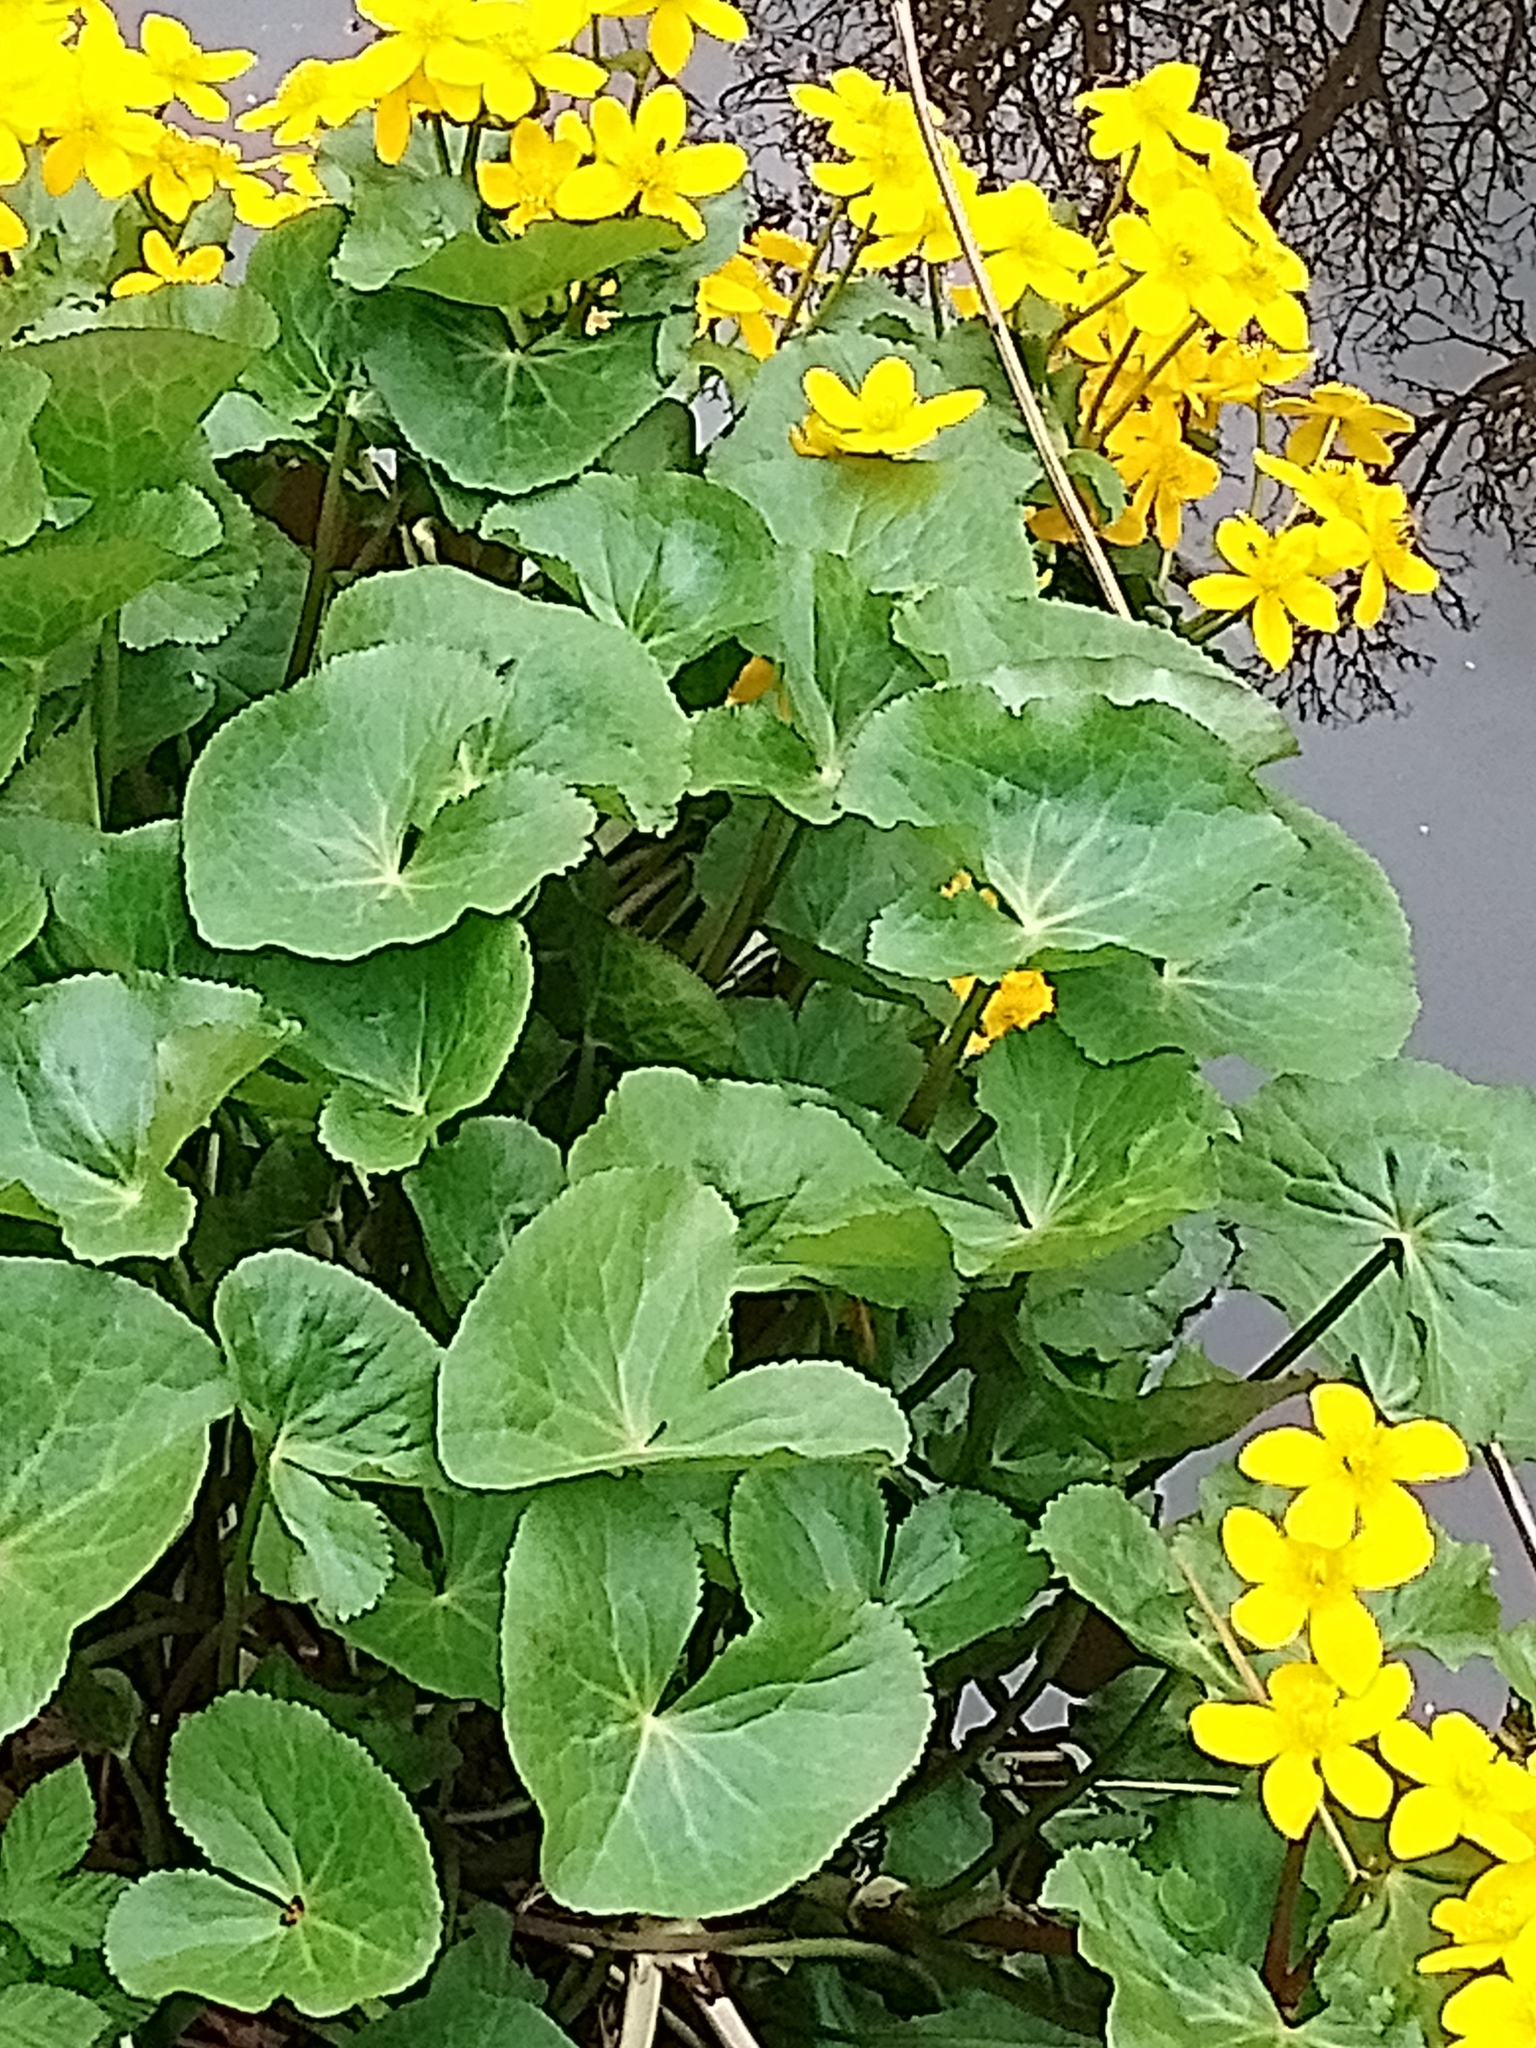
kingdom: Plantae
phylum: Tracheophyta
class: Magnoliopsida
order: Ranunculales
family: Ranunculaceae
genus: Caltha
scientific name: Caltha palustris
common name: Marsh marigold
